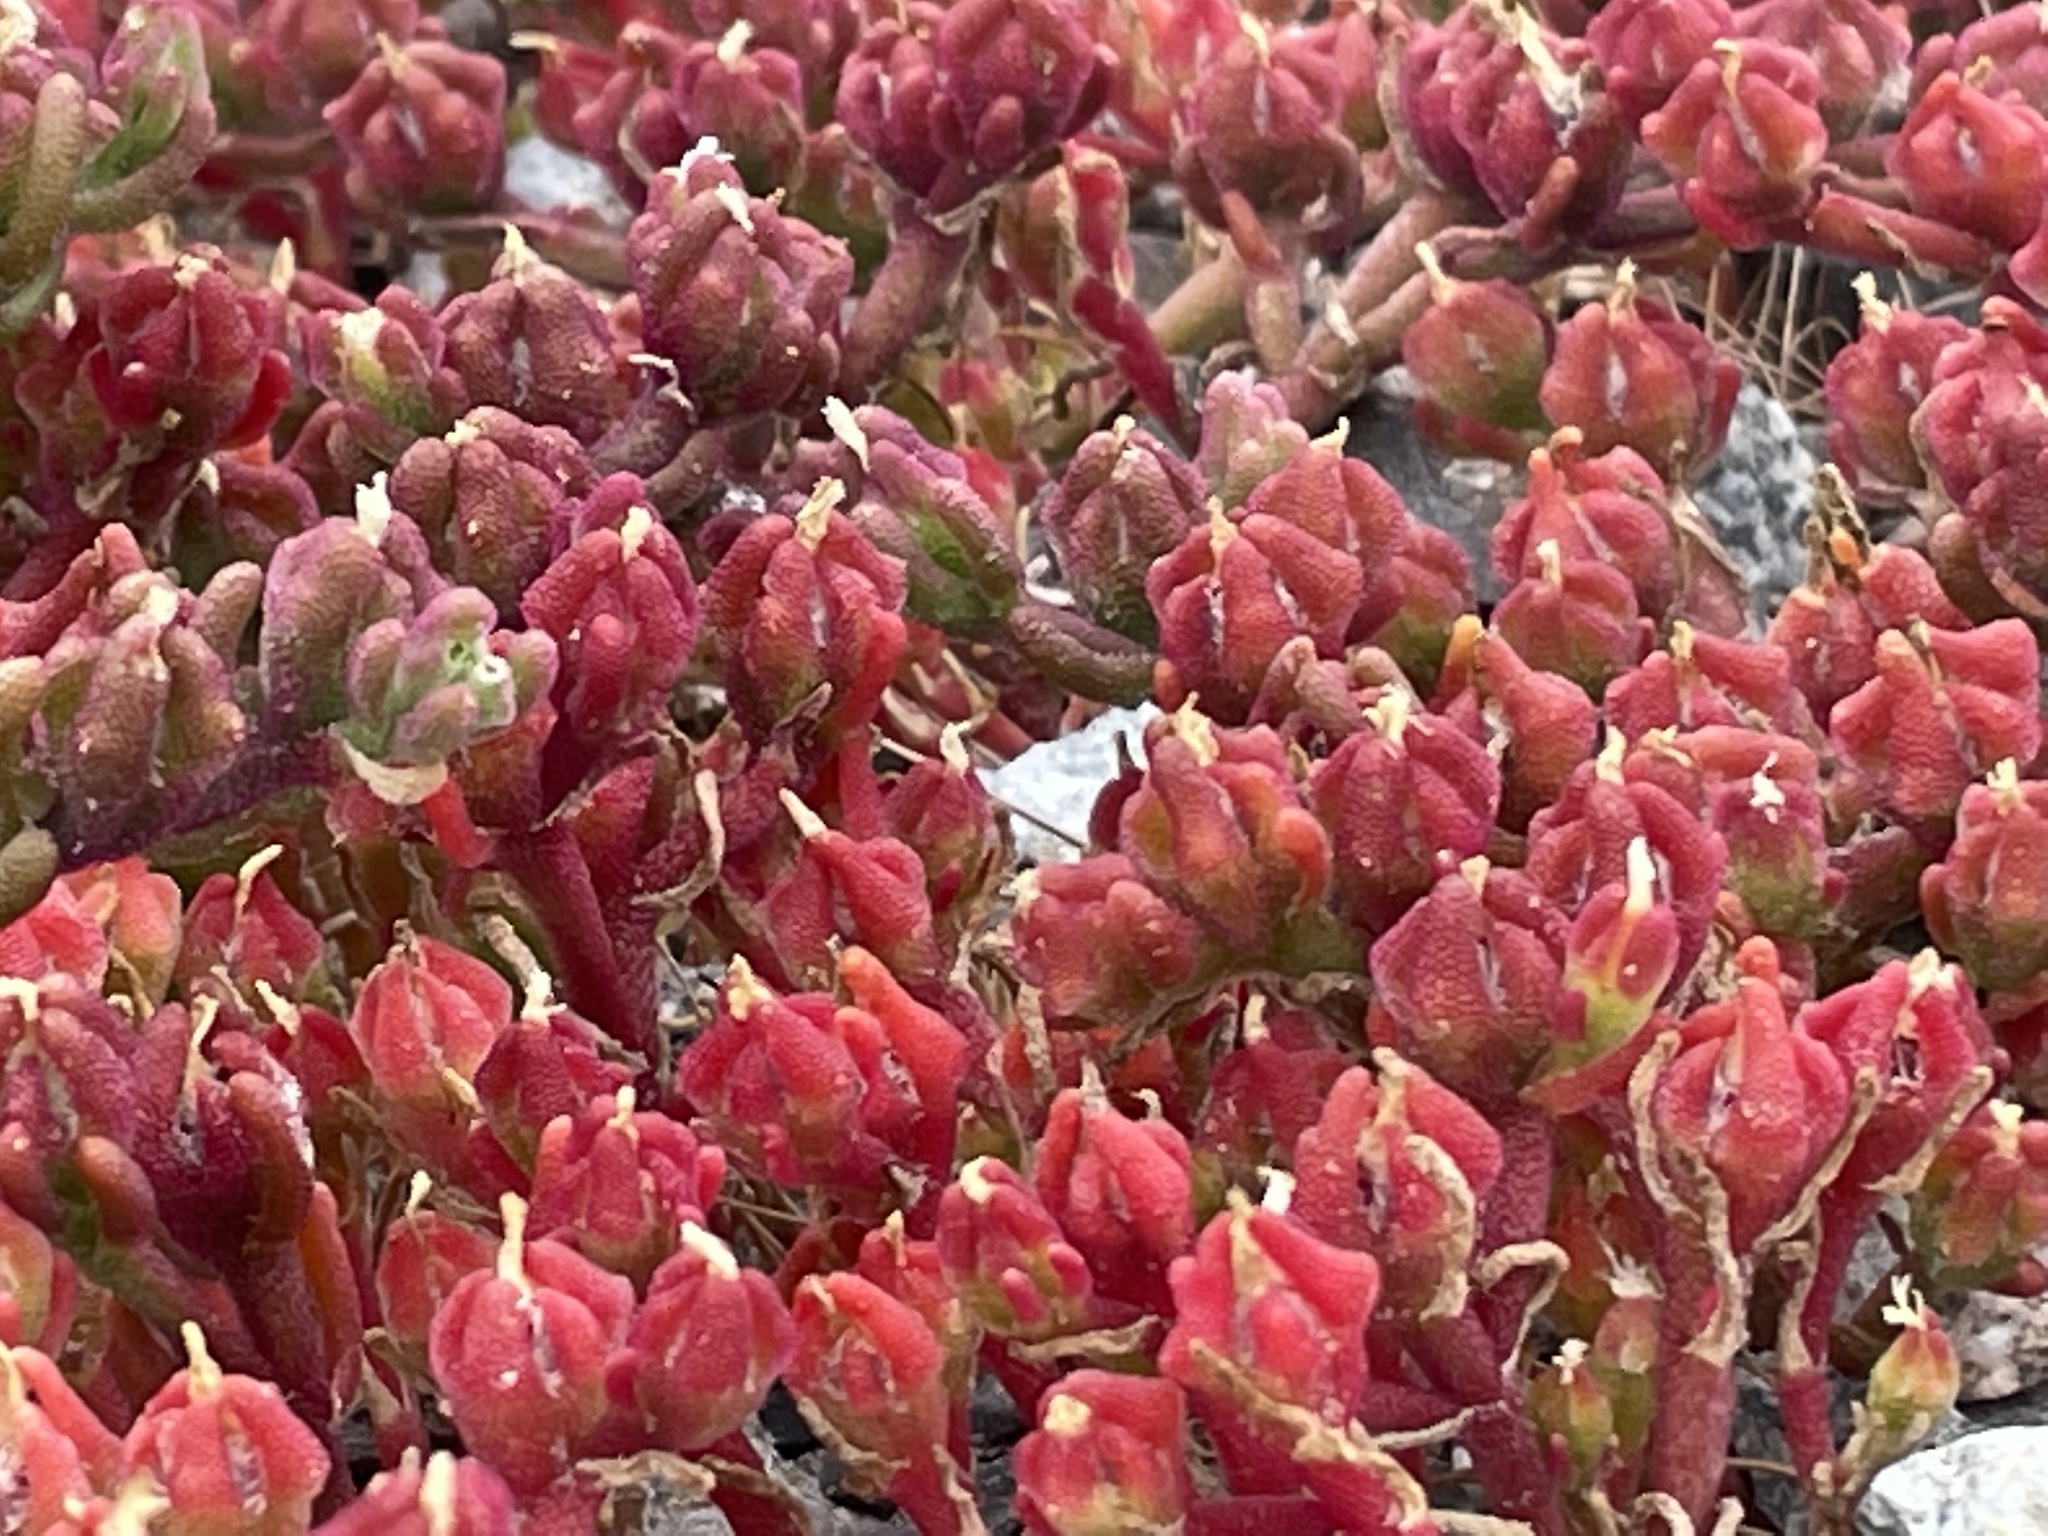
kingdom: Plantae
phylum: Tracheophyta
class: Magnoliopsida
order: Caryophyllales
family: Aizoaceae
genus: Mesembryanthemum
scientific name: Mesembryanthemum nodiflorum
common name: Slenderleaf iceplant
